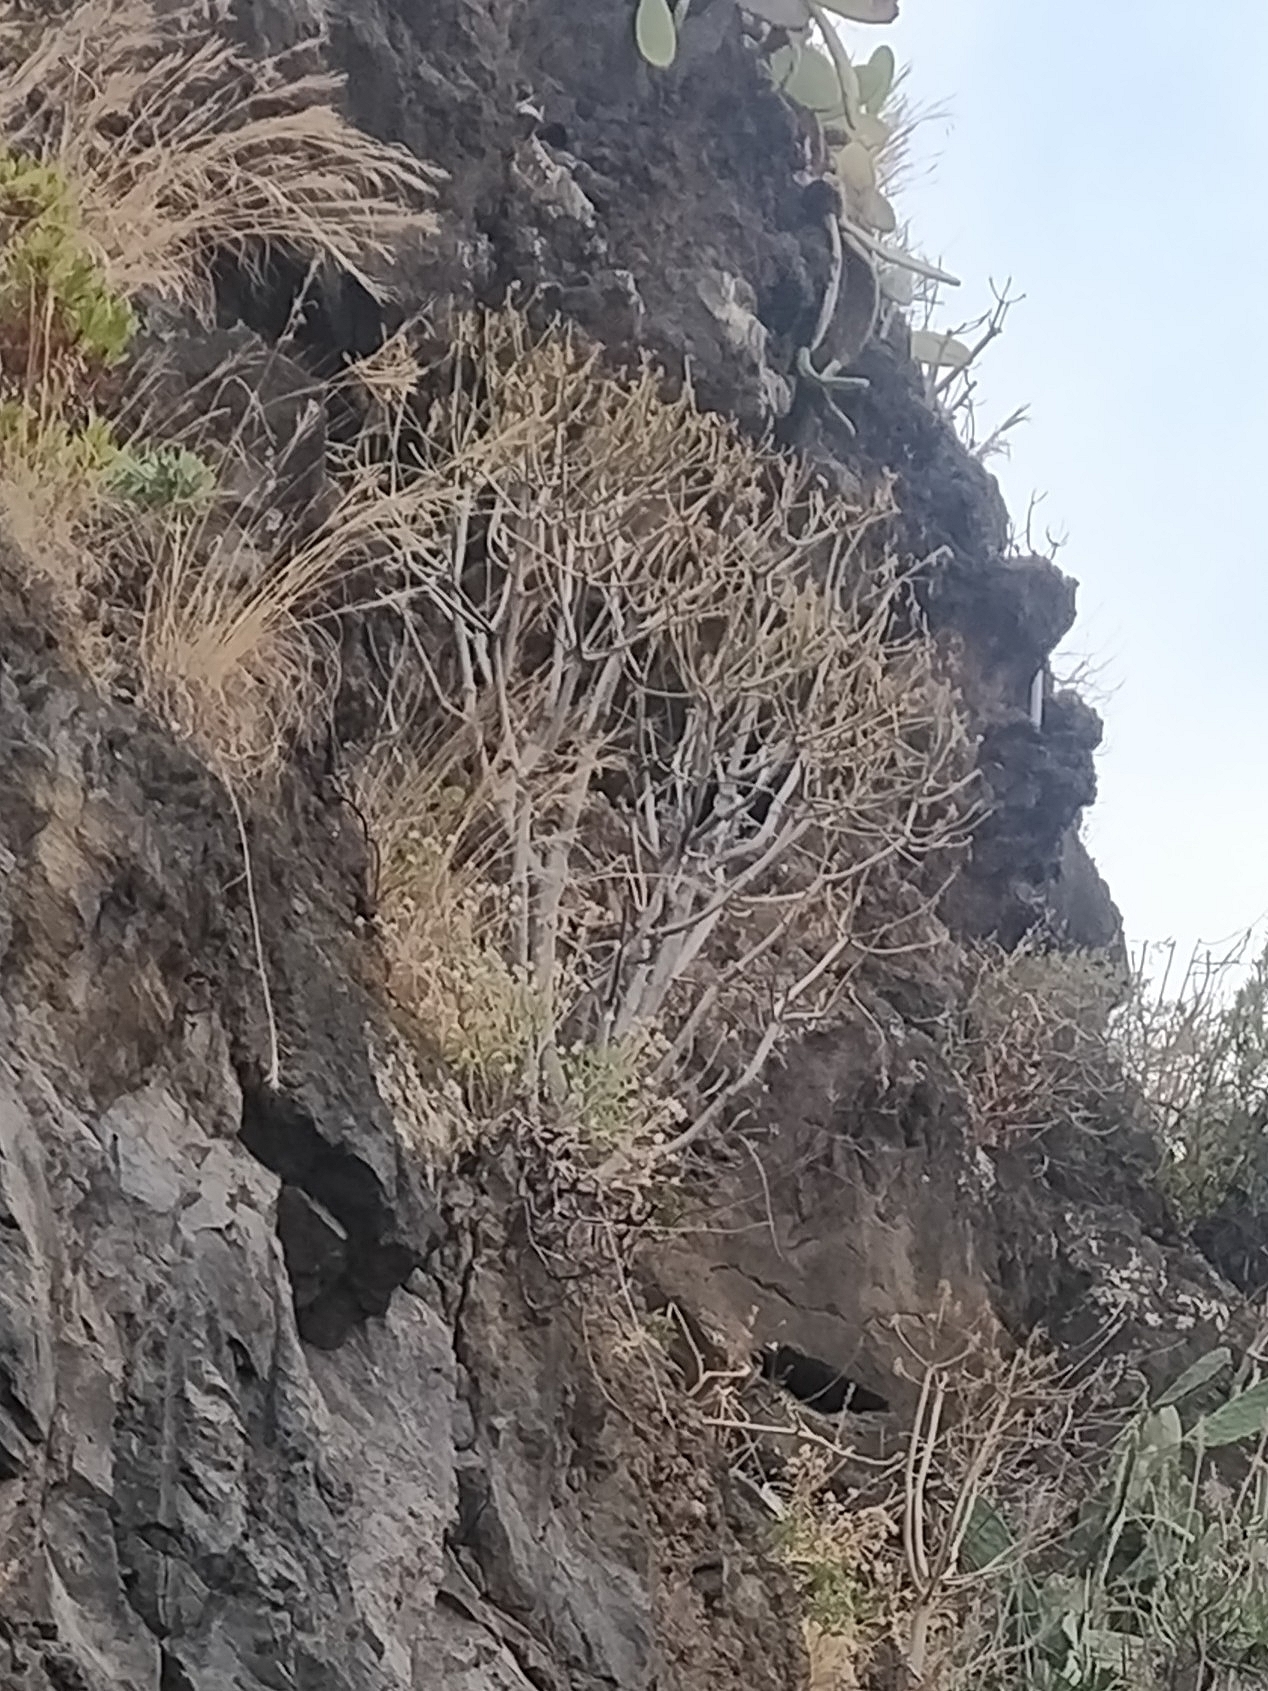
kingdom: Plantae
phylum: Tracheophyta
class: Magnoliopsida
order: Malpighiales
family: Euphorbiaceae
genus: Euphorbia
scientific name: Euphorbia piscatoria
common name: Fish-stunning spurge
